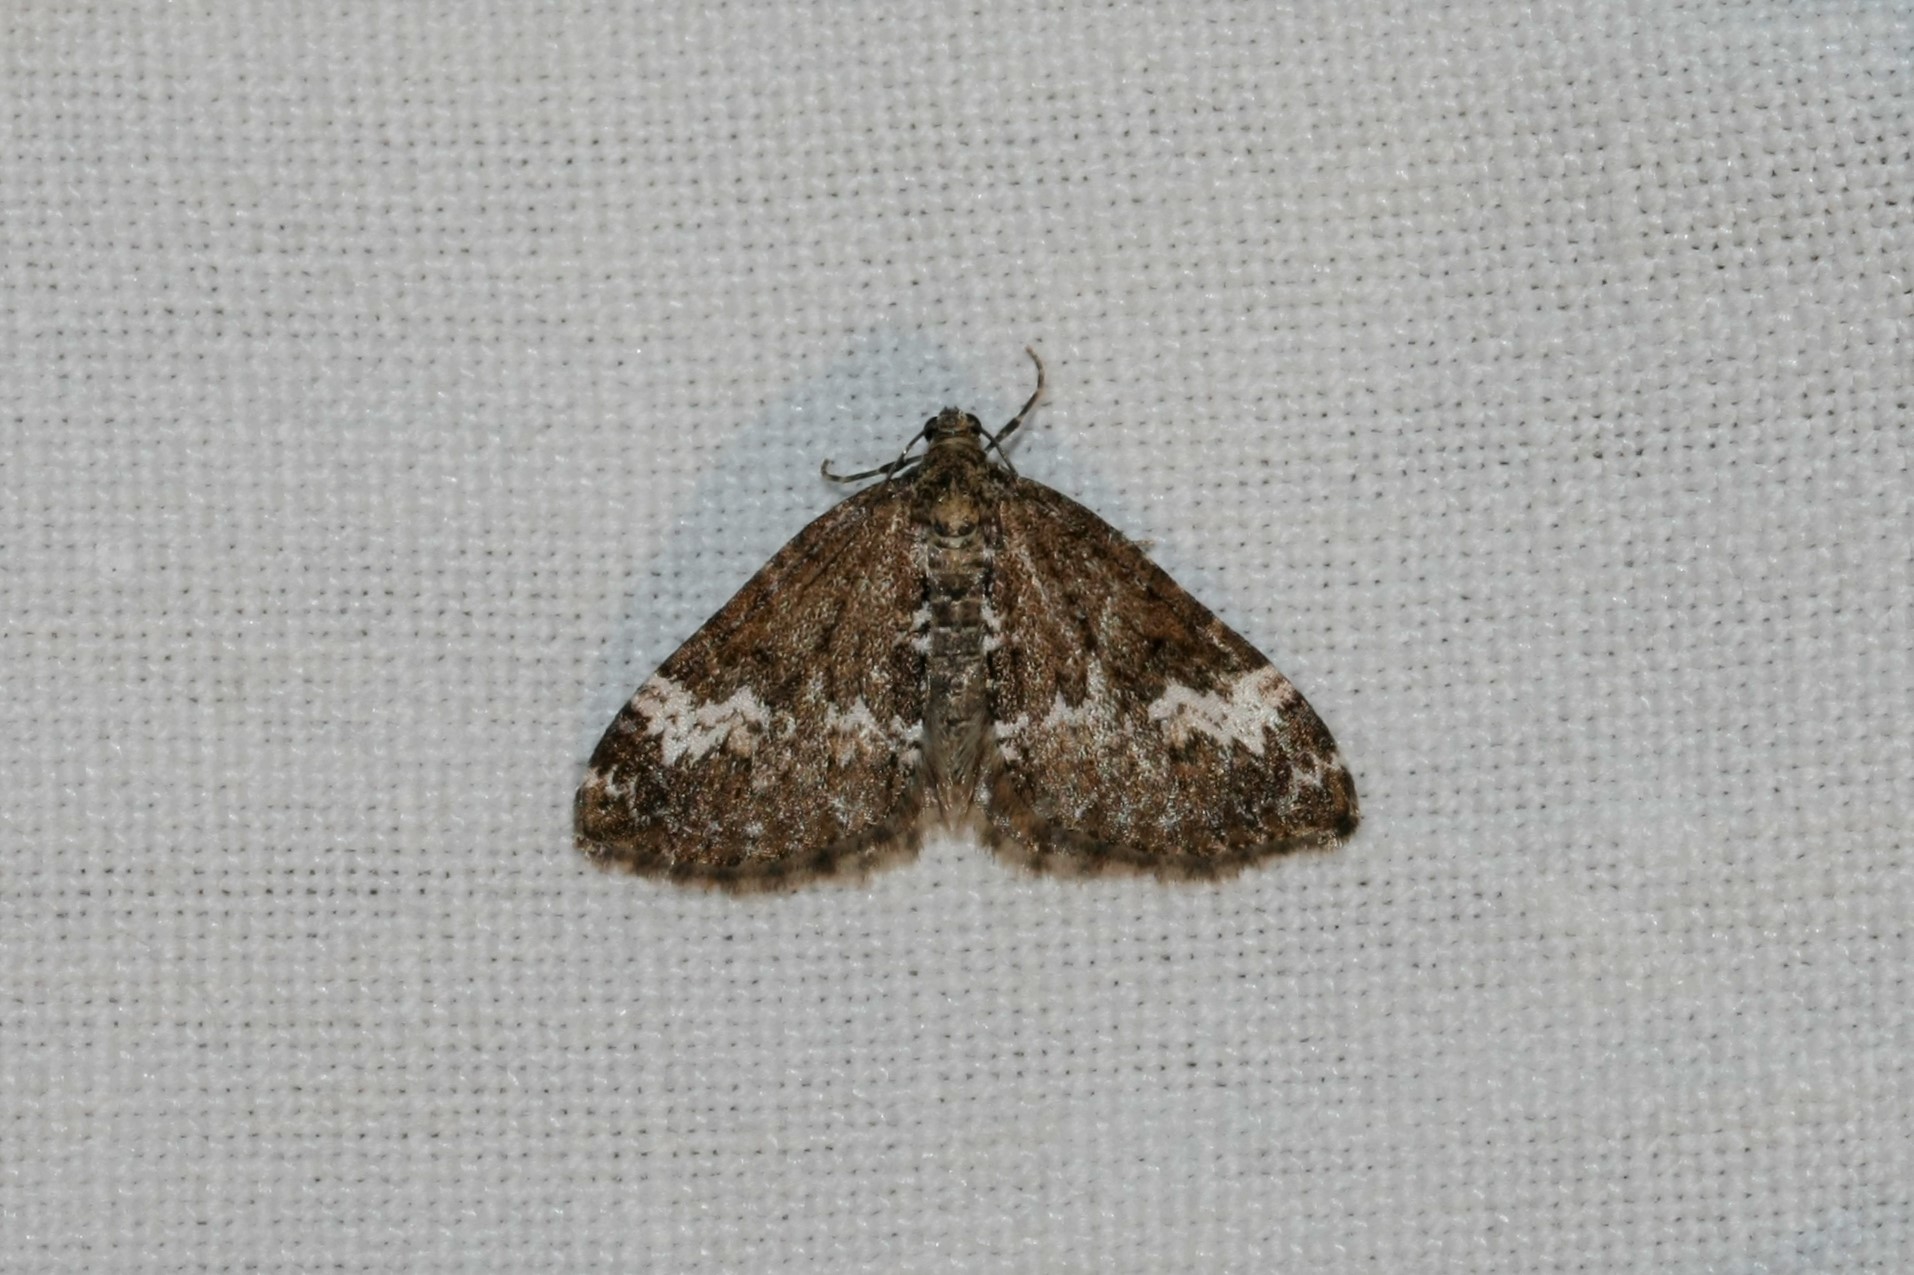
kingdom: Animalia
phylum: Arthropoda
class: Insecta
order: Lepidoptera
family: Geometridae
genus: Perizoma
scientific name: Perizoma alchemillata
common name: Small rivulet
